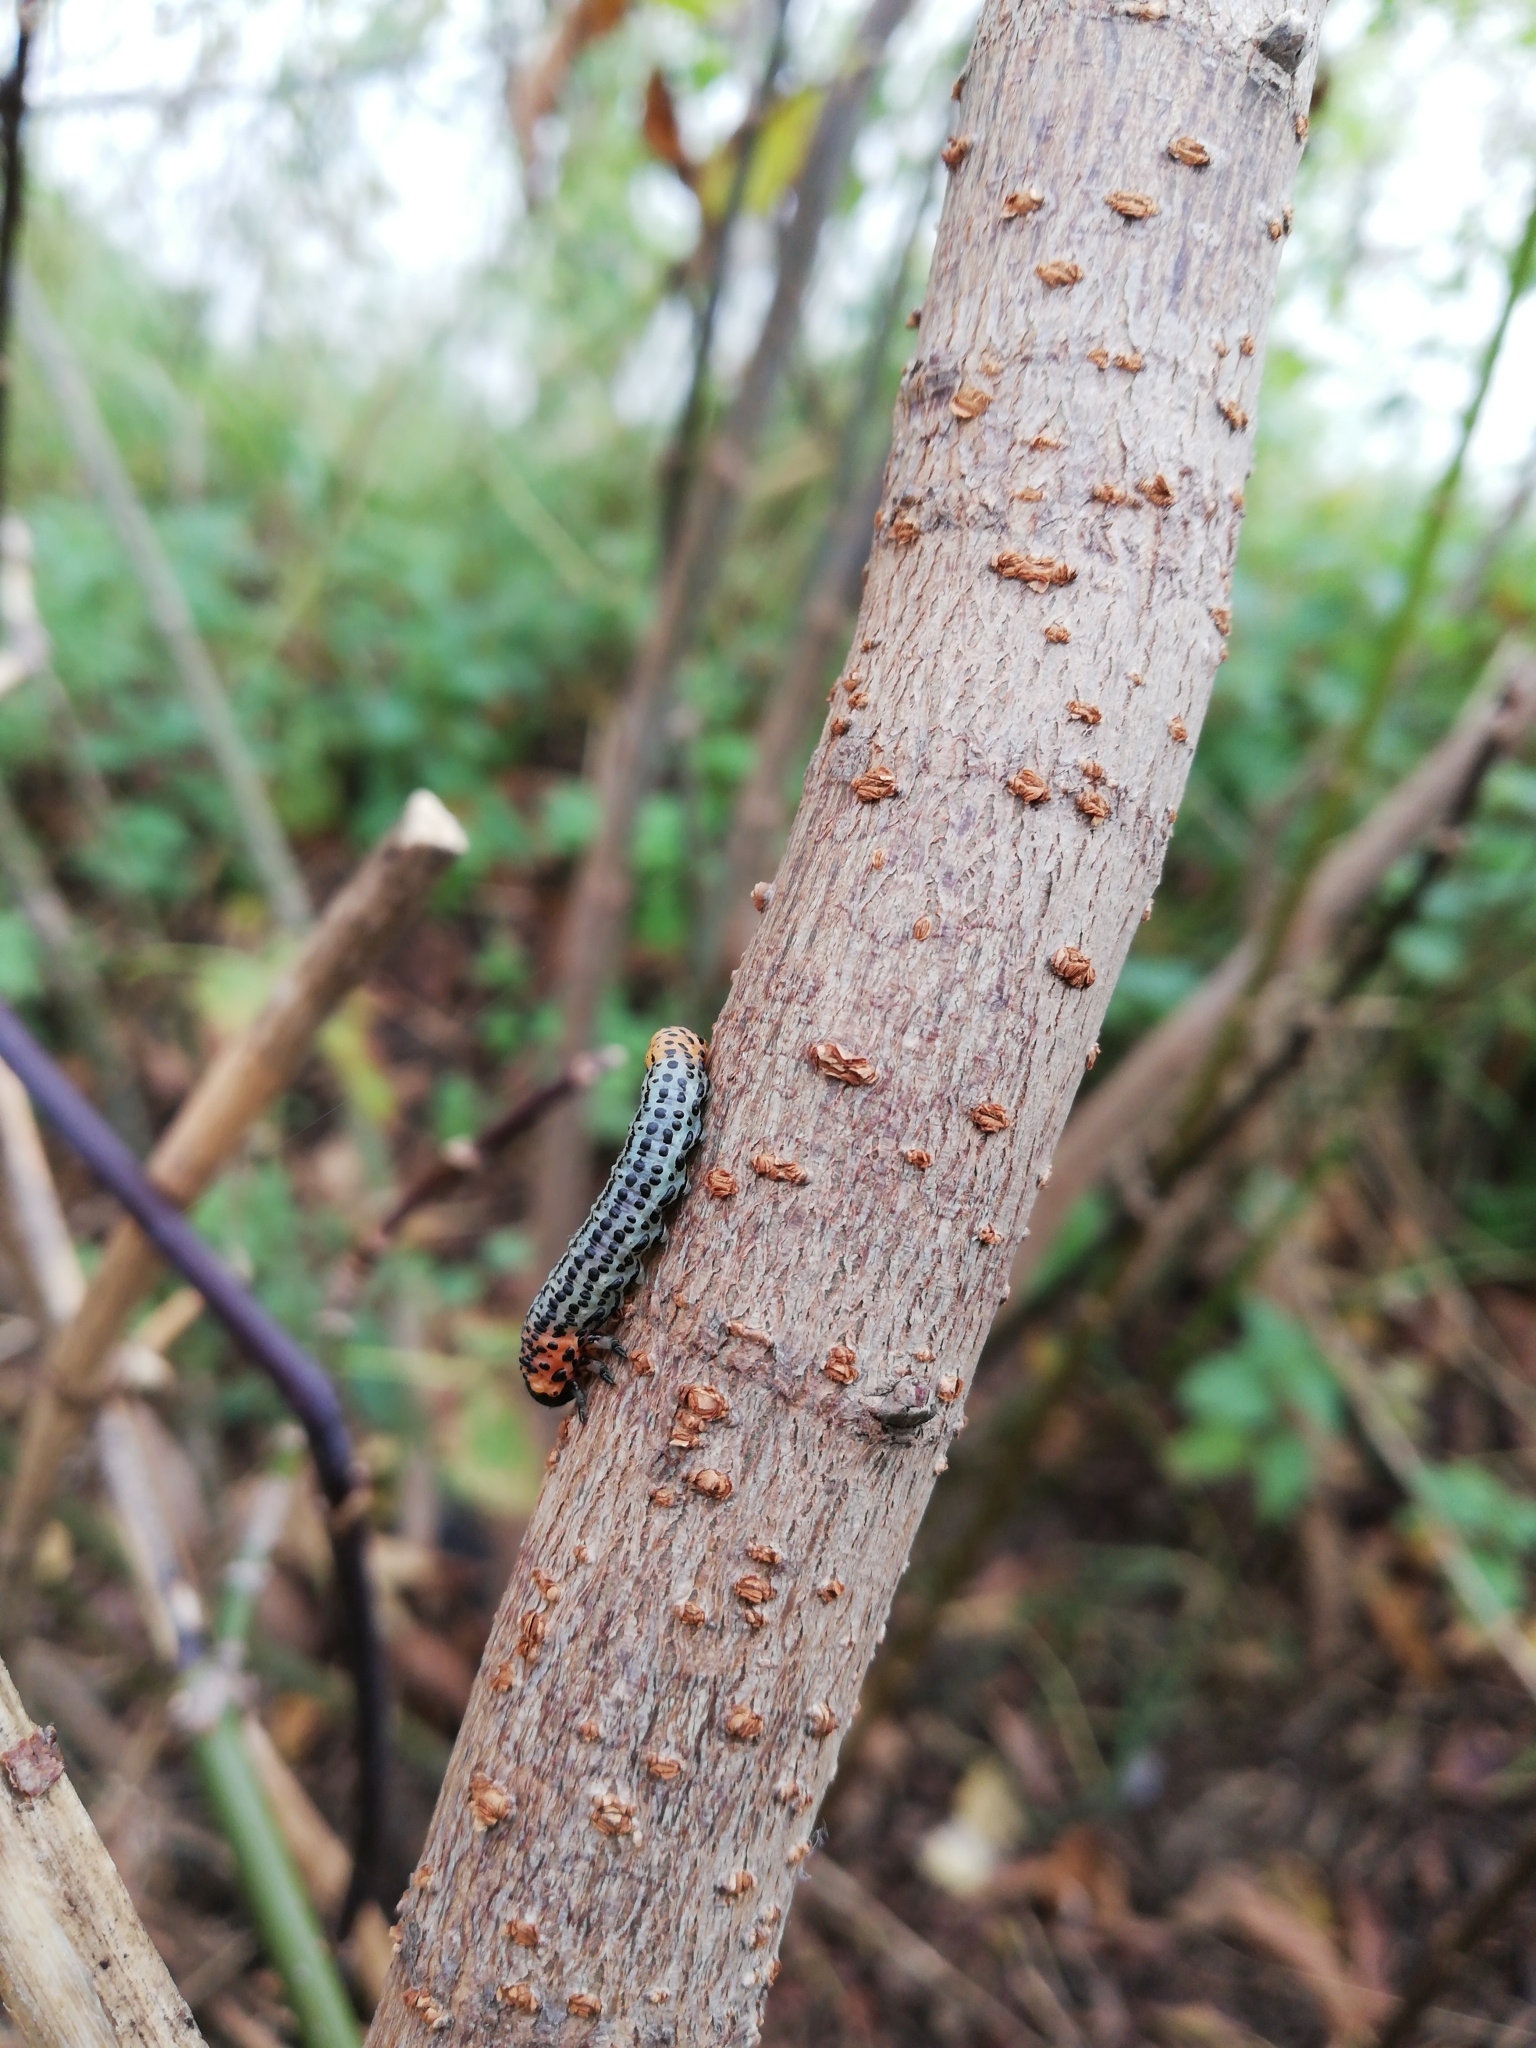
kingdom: Animalia
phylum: Arthropoda
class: Insecta
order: Hymenoptera
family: Tenthredinidae
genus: Nematus
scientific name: Nematus salicis
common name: Willow sawfly
